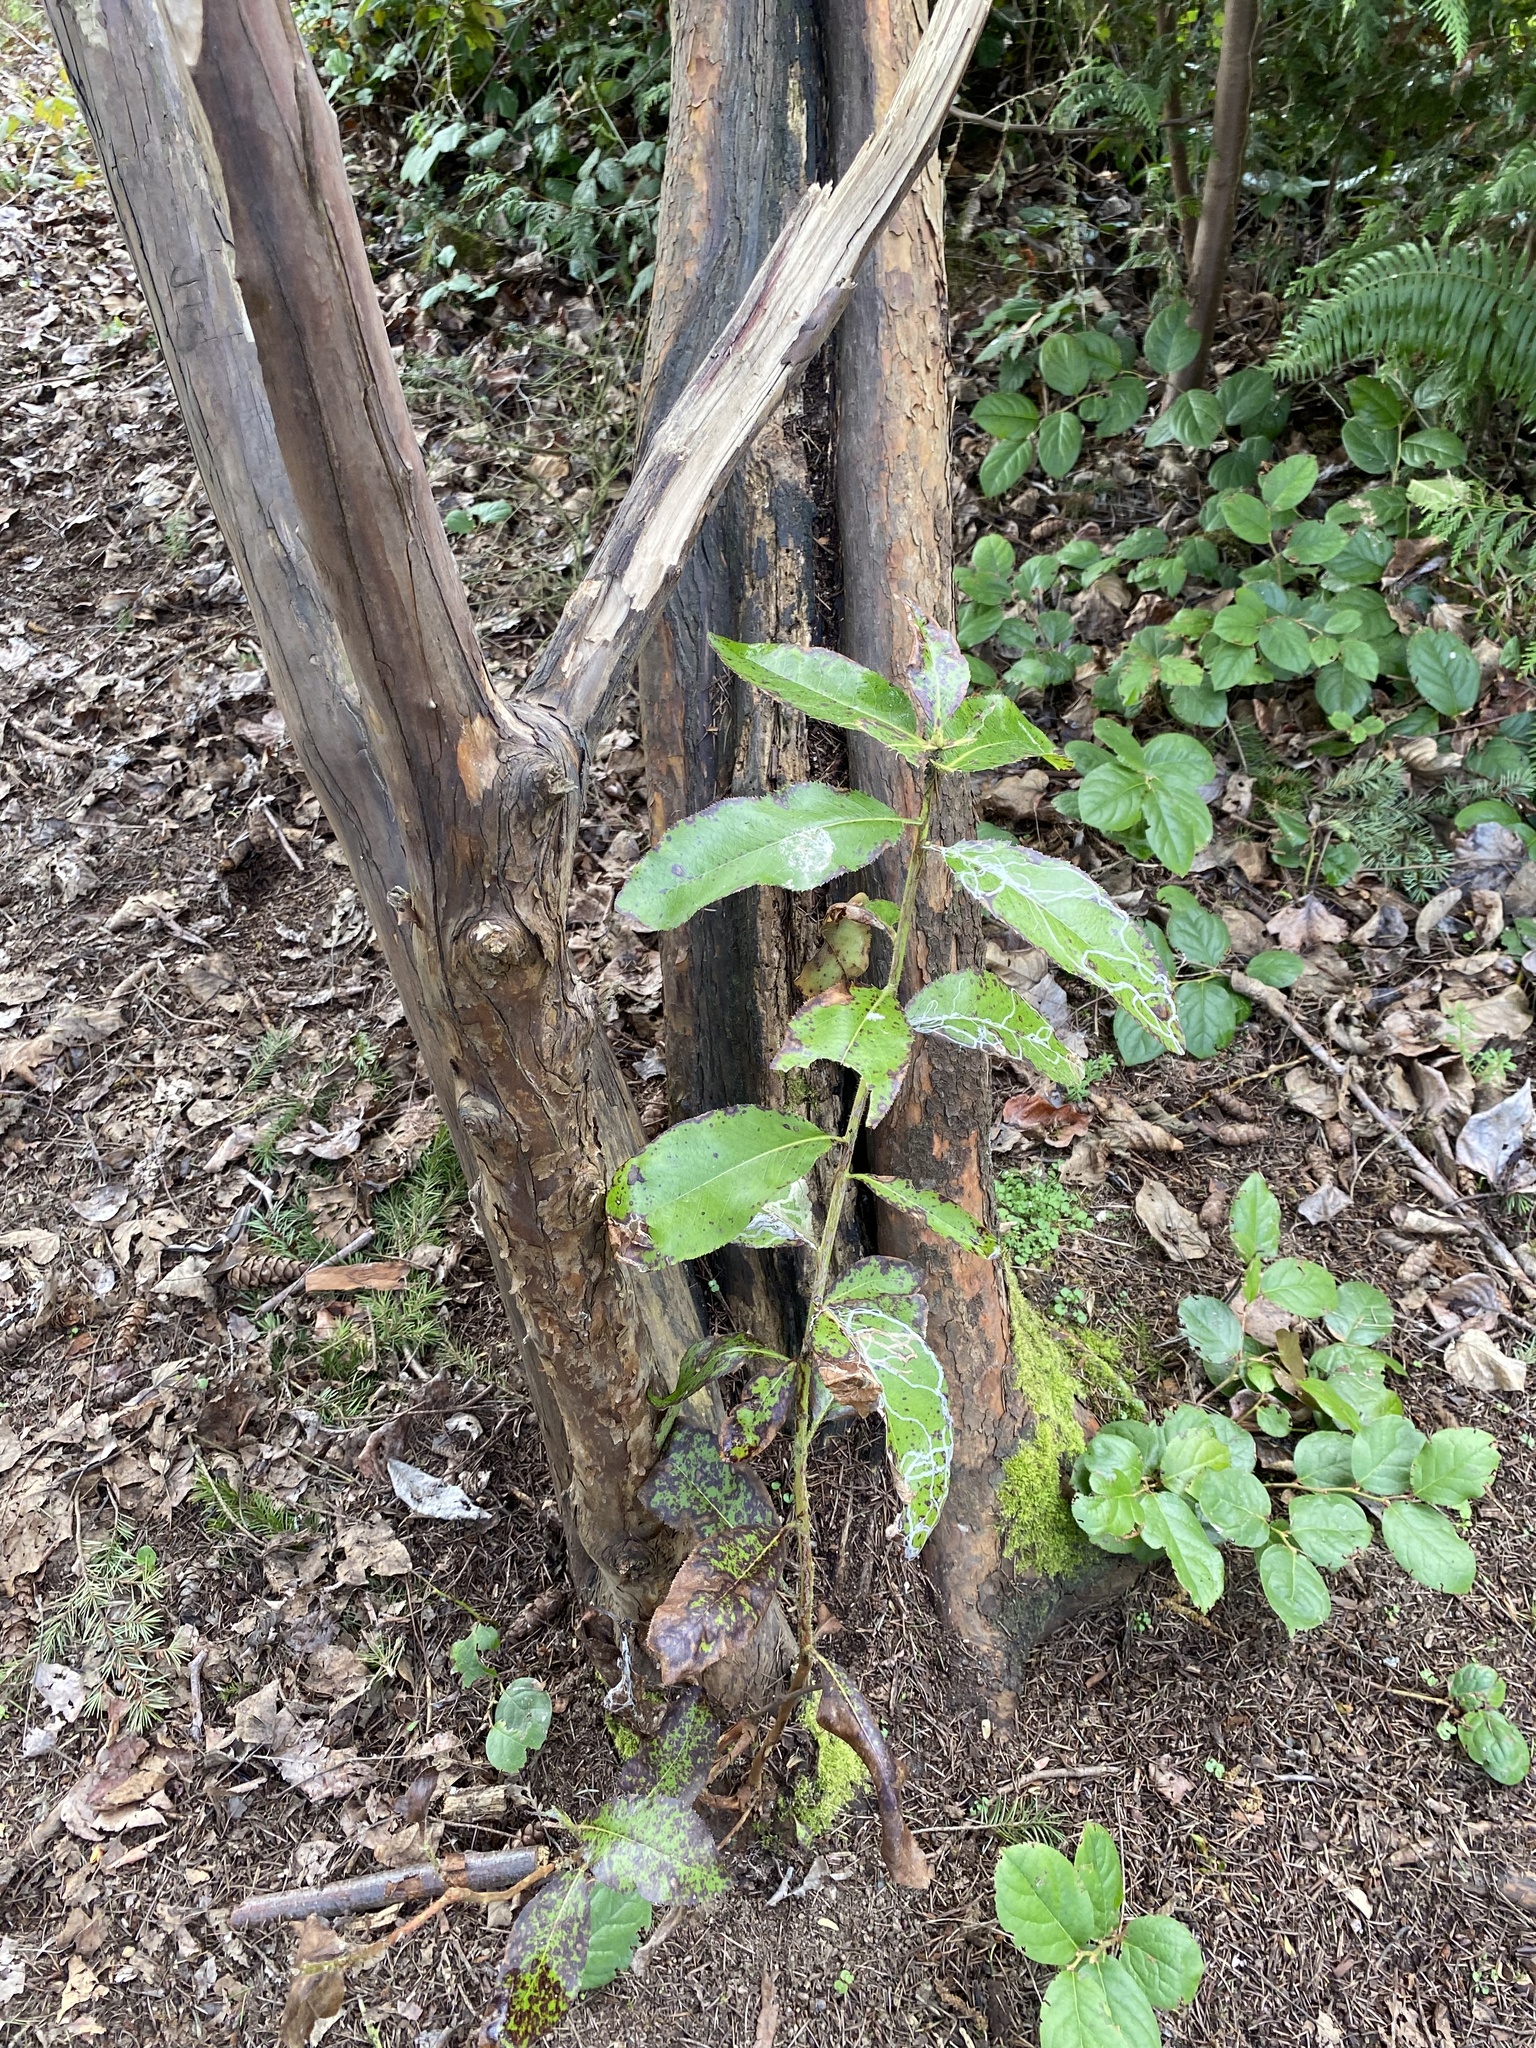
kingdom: Plantae
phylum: Tracheophyta
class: Magnoliopsida
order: Ericales
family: Ericaceae
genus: Arbutus
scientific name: Arbutus menziesii
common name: Pacific madrone
